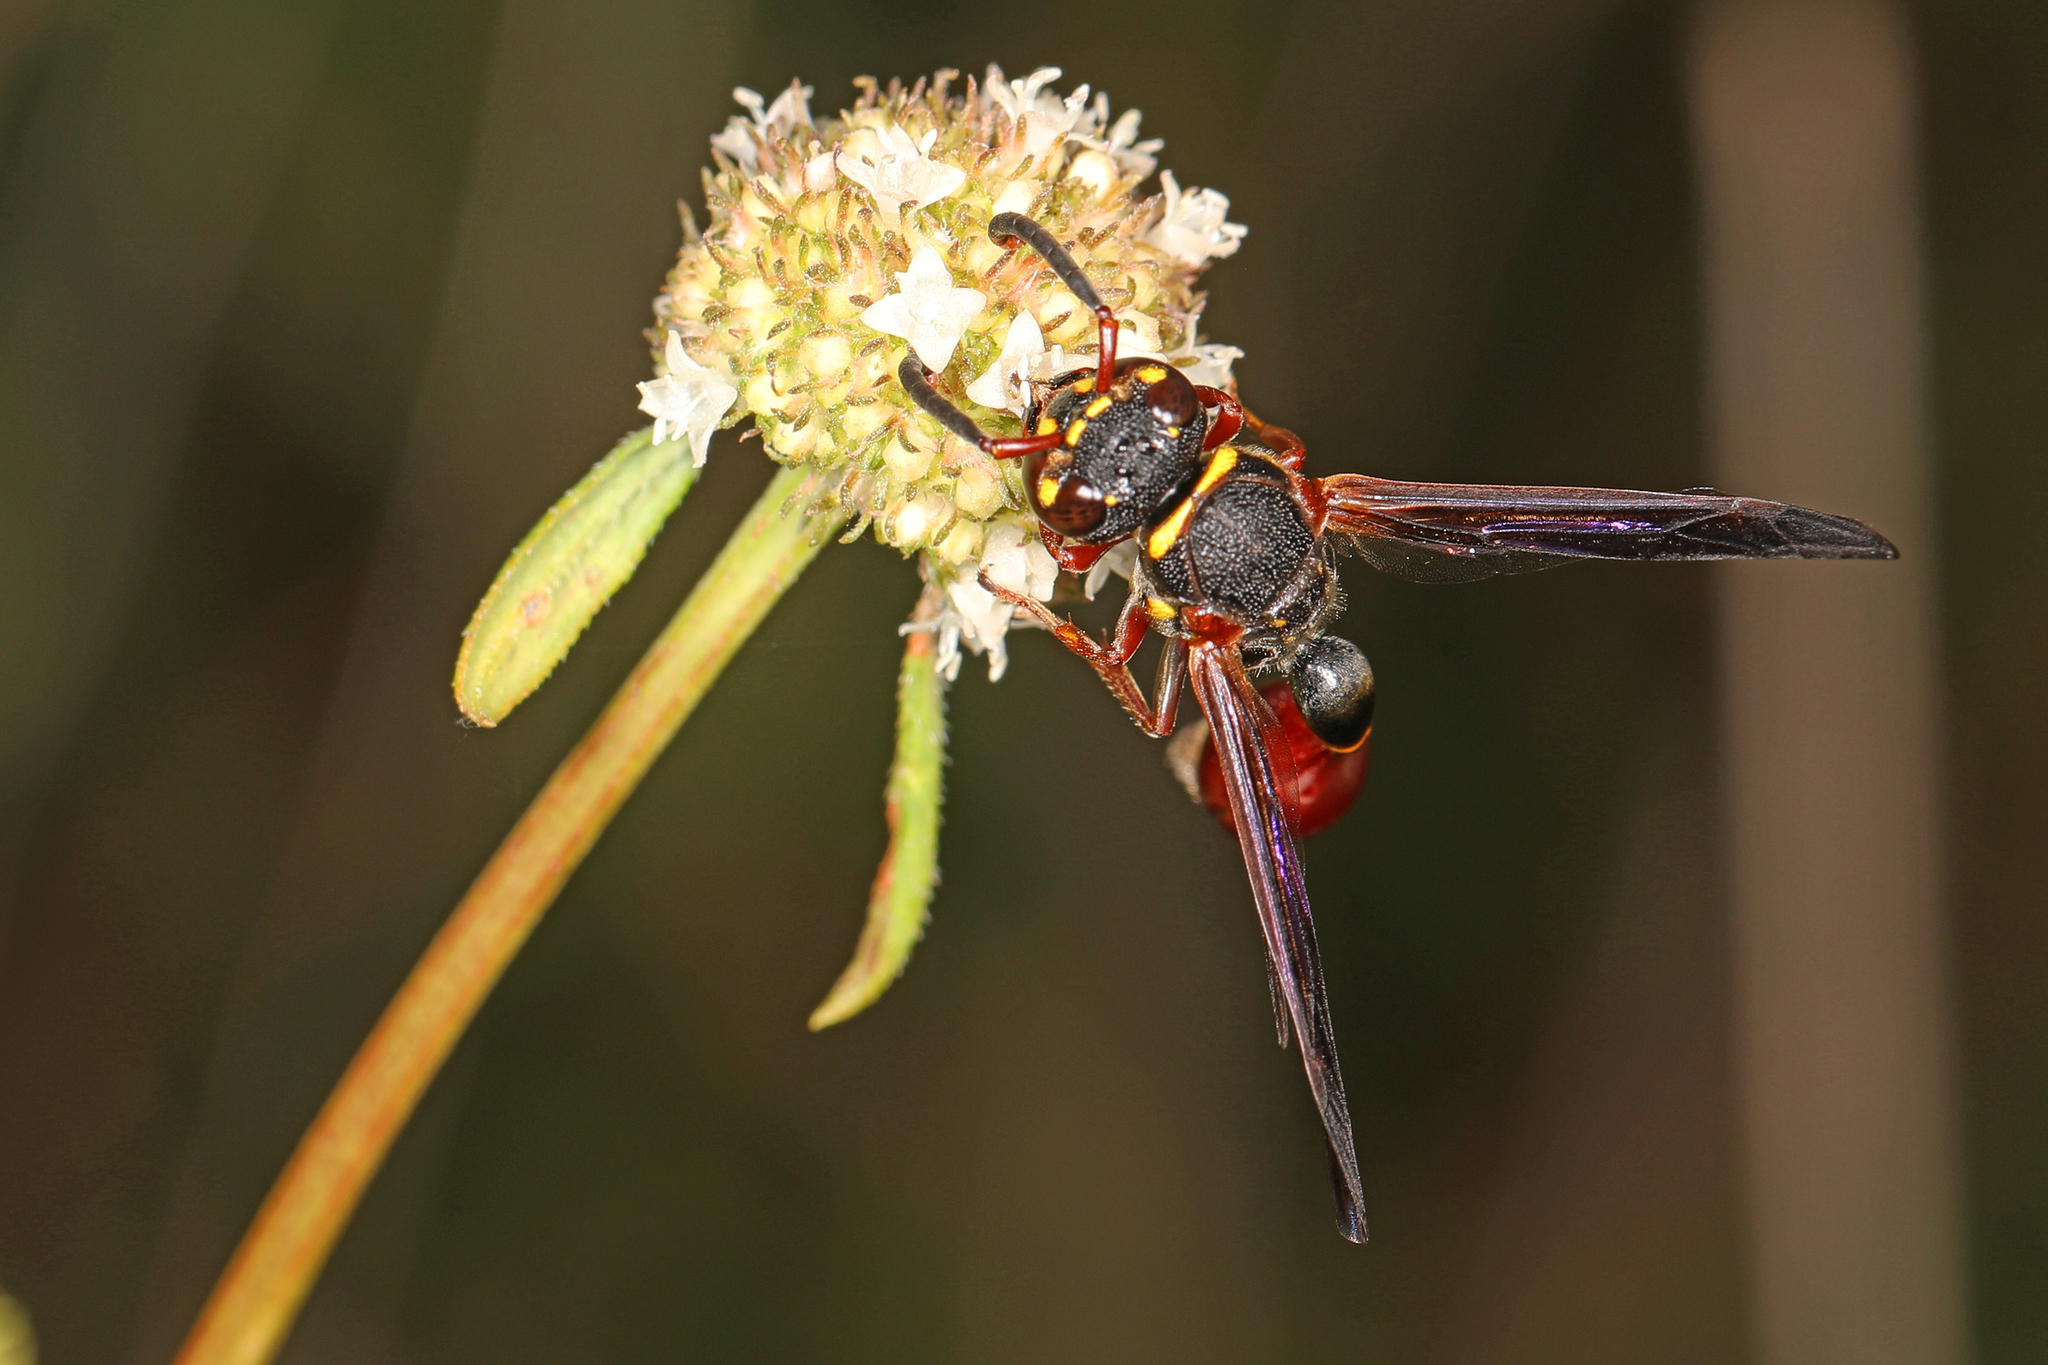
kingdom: Animalia
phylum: Arthropoda
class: Insecta
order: Hymenoptera
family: Eumenidae
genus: Zethus
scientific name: Zethus slossonae
